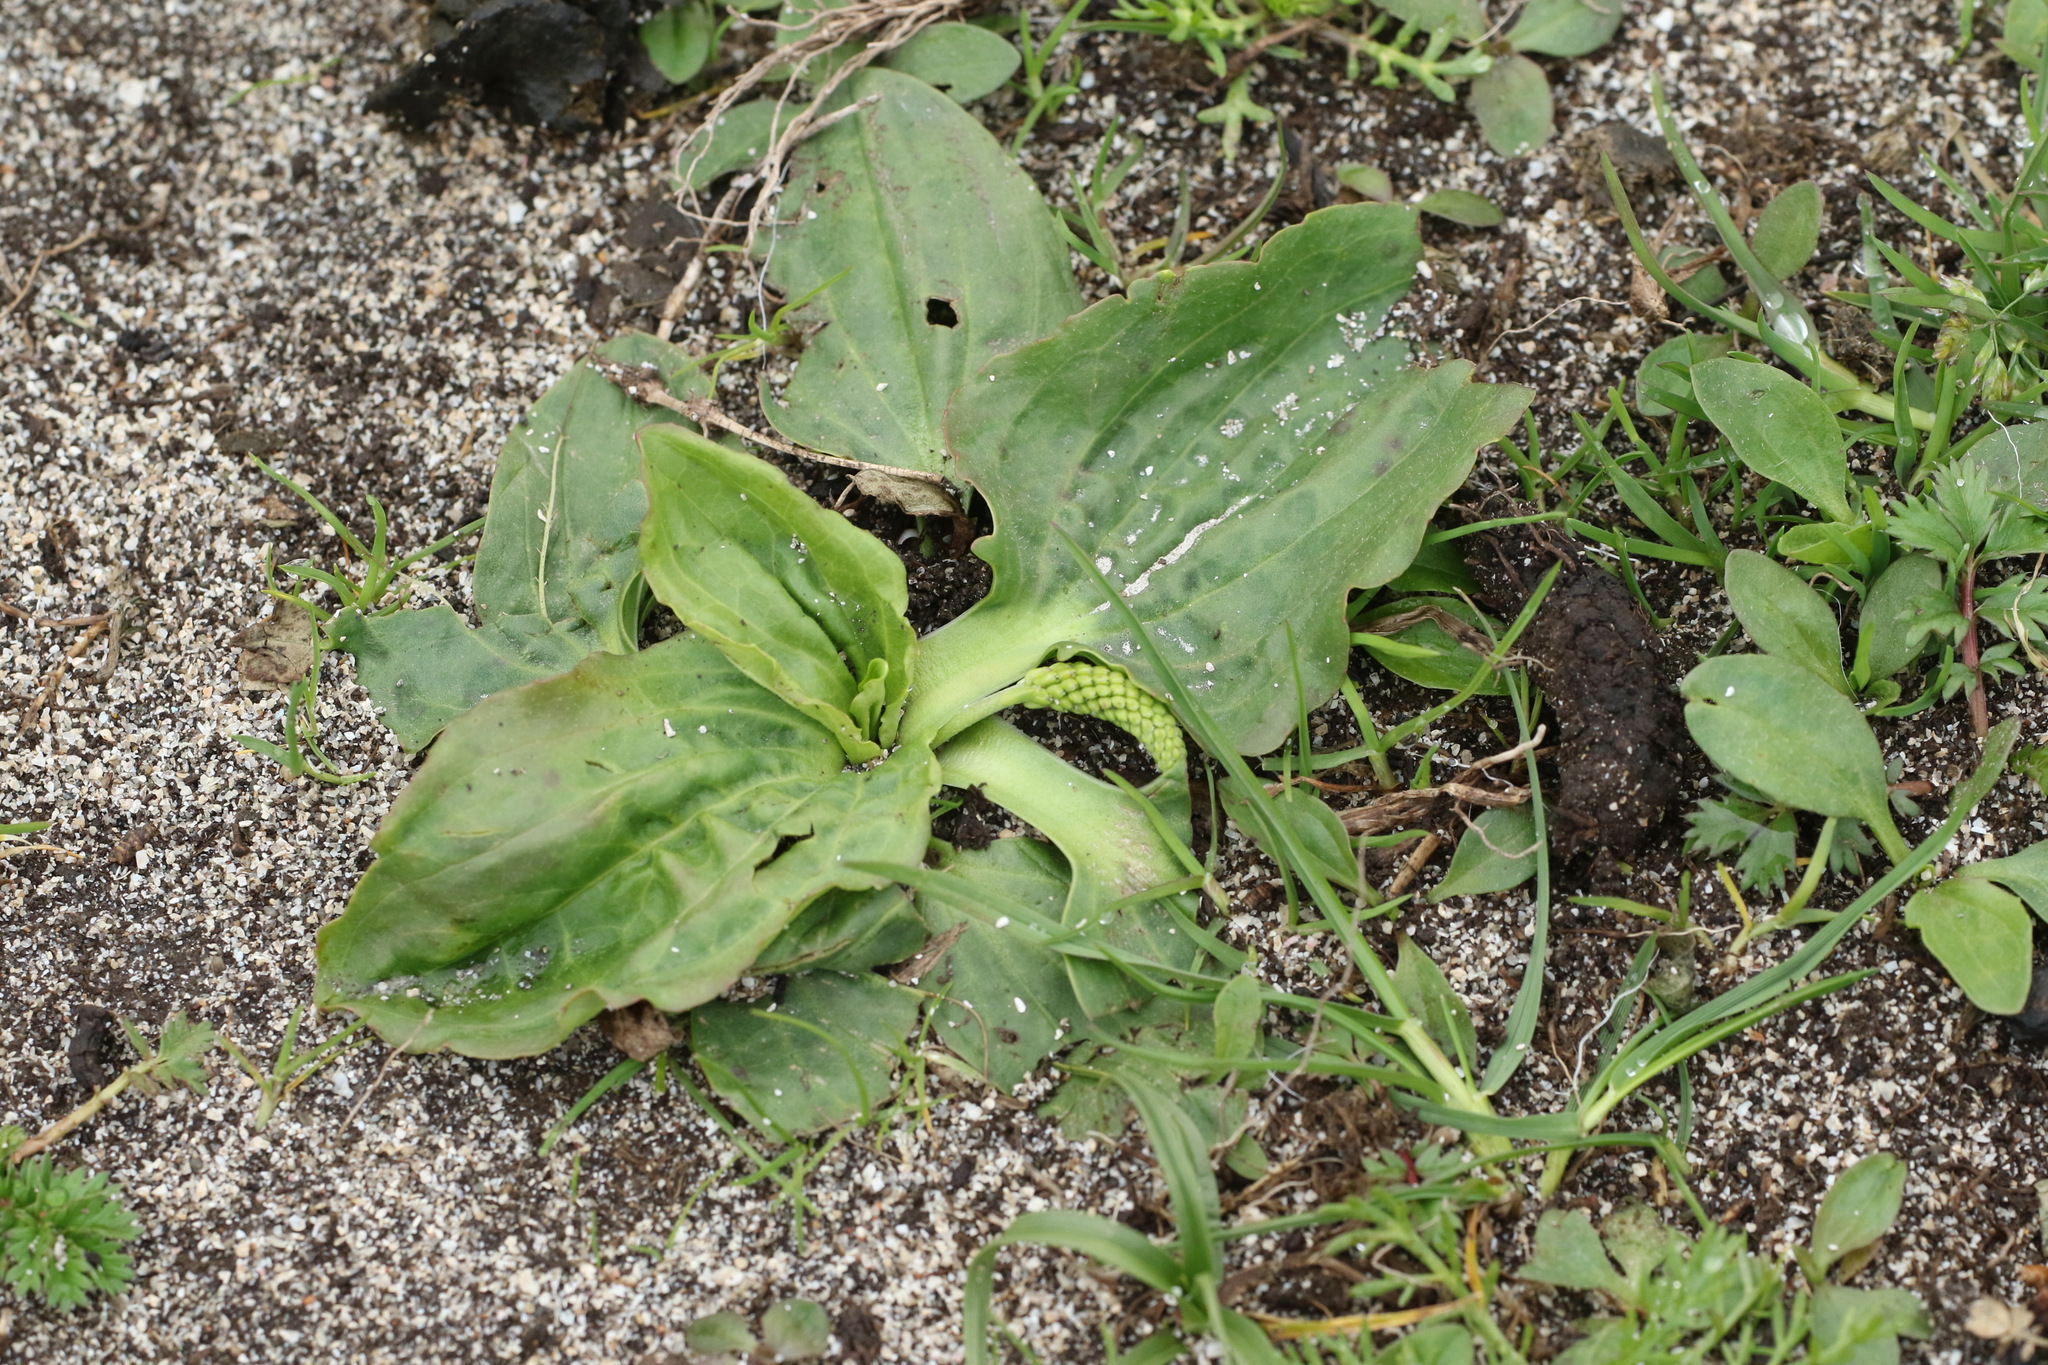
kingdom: Plantae
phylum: Tracheophyta
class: Magnoliopsida
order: Lamiales
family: Plantaginaceae
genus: Plantago
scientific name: Plantago major
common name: Common plantain
